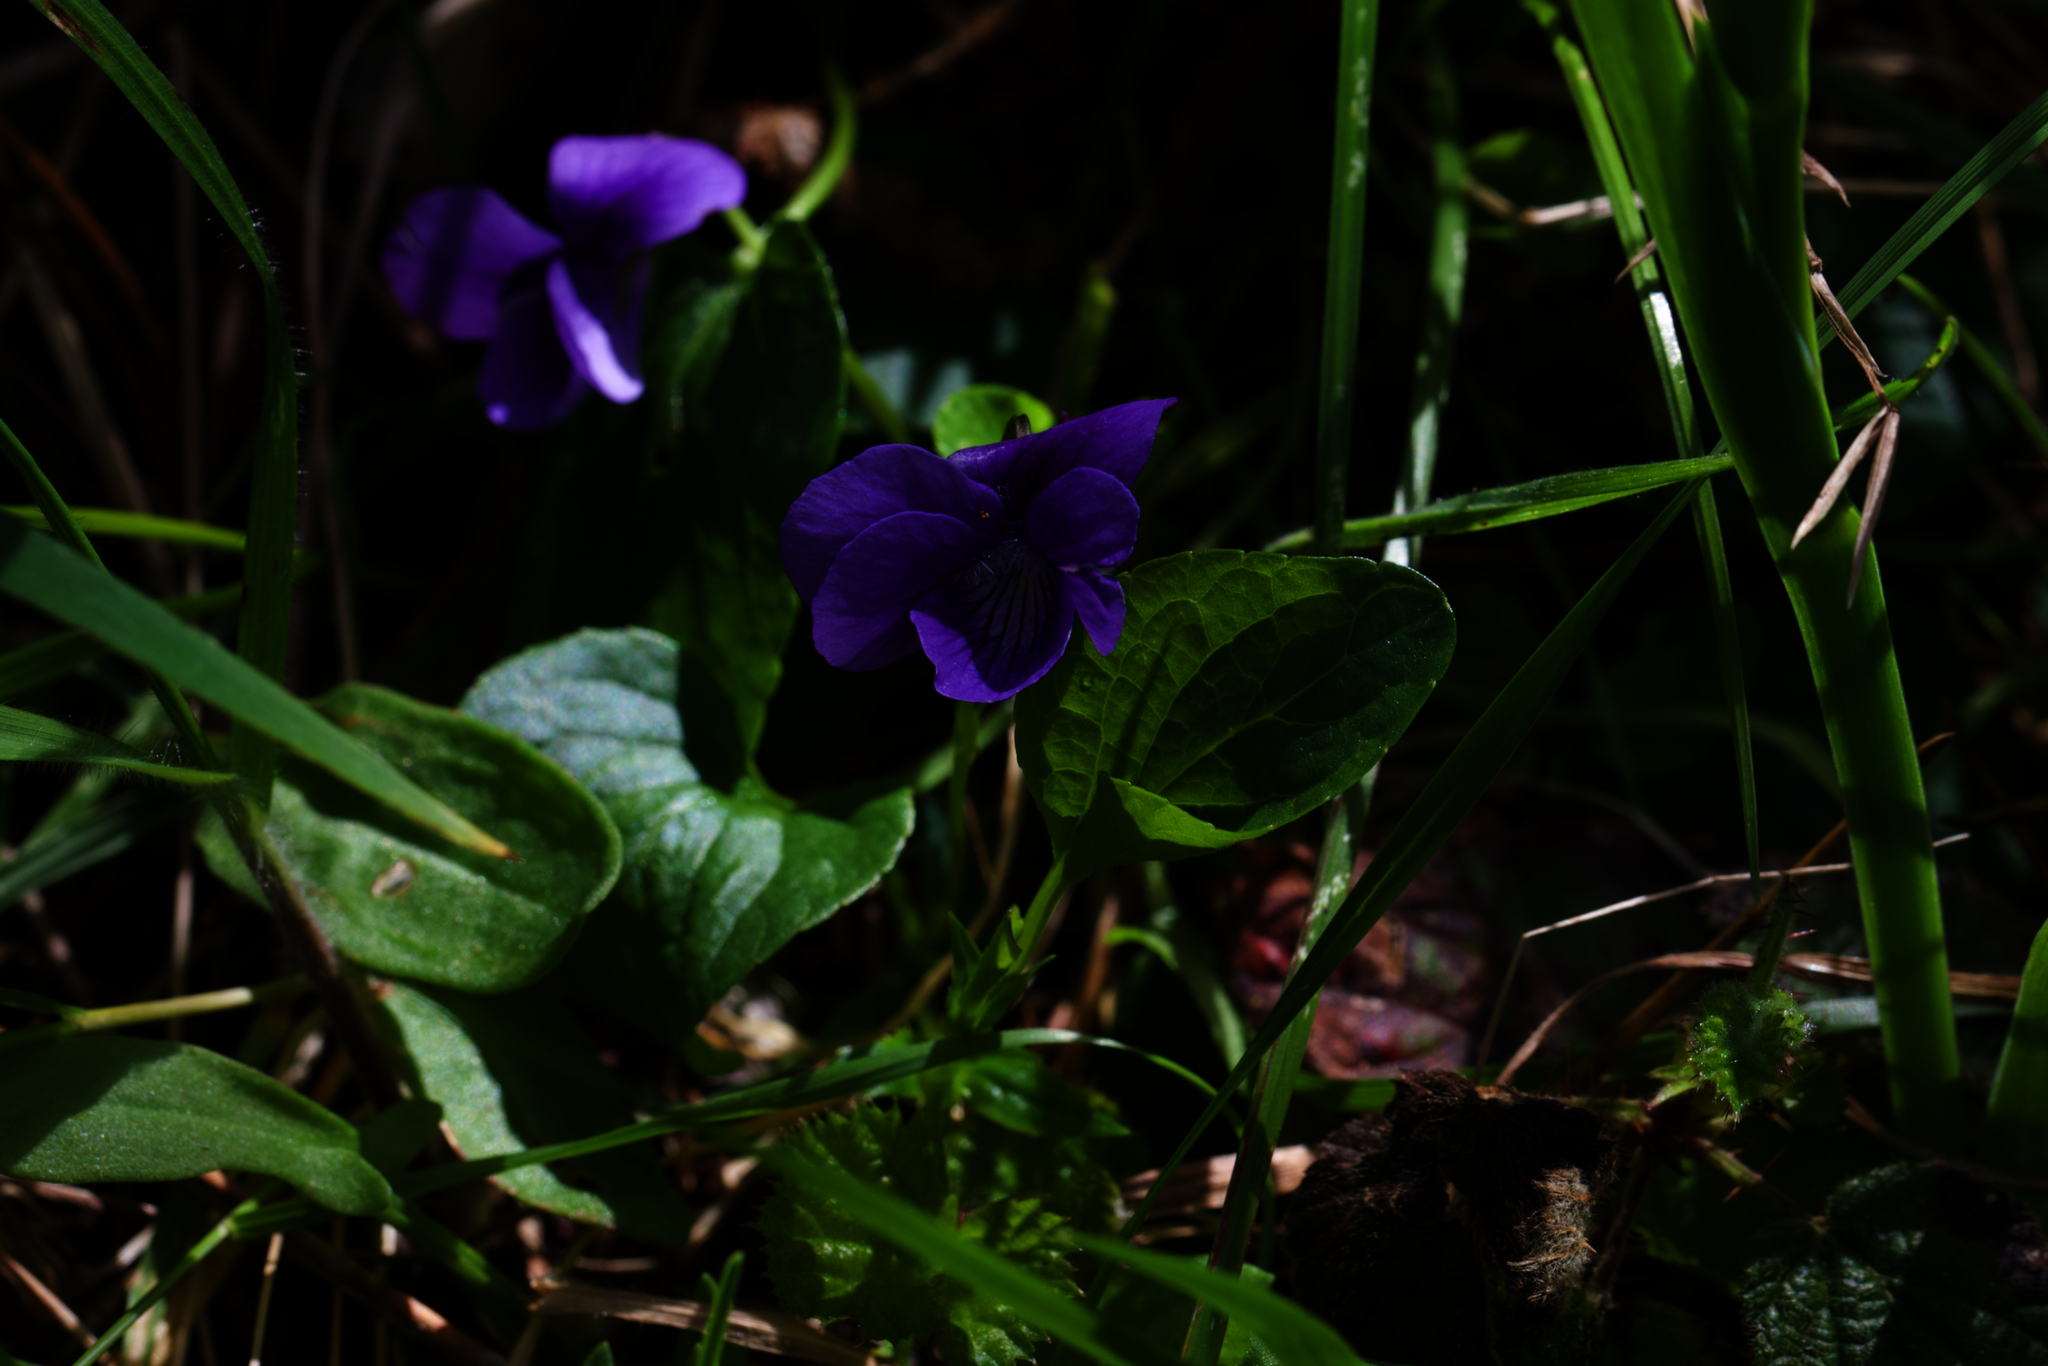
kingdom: Plantae
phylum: Tracheophyta
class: Magnoliopsida
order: Malpighiales
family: Violaceae
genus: Viola
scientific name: Viola adunca
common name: Sand violet
